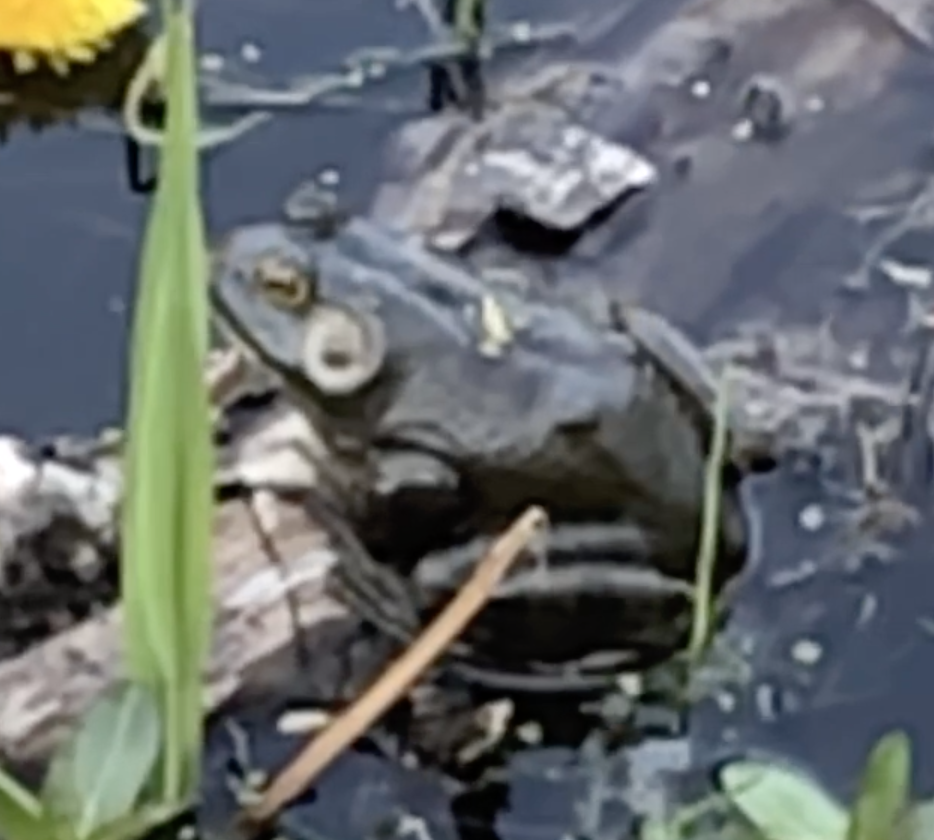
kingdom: Animalia
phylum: Chordata
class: Amphibia
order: Anura
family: Ranidae
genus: Lithobates
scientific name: Lithobates catesbeianus
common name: American bullfrog
